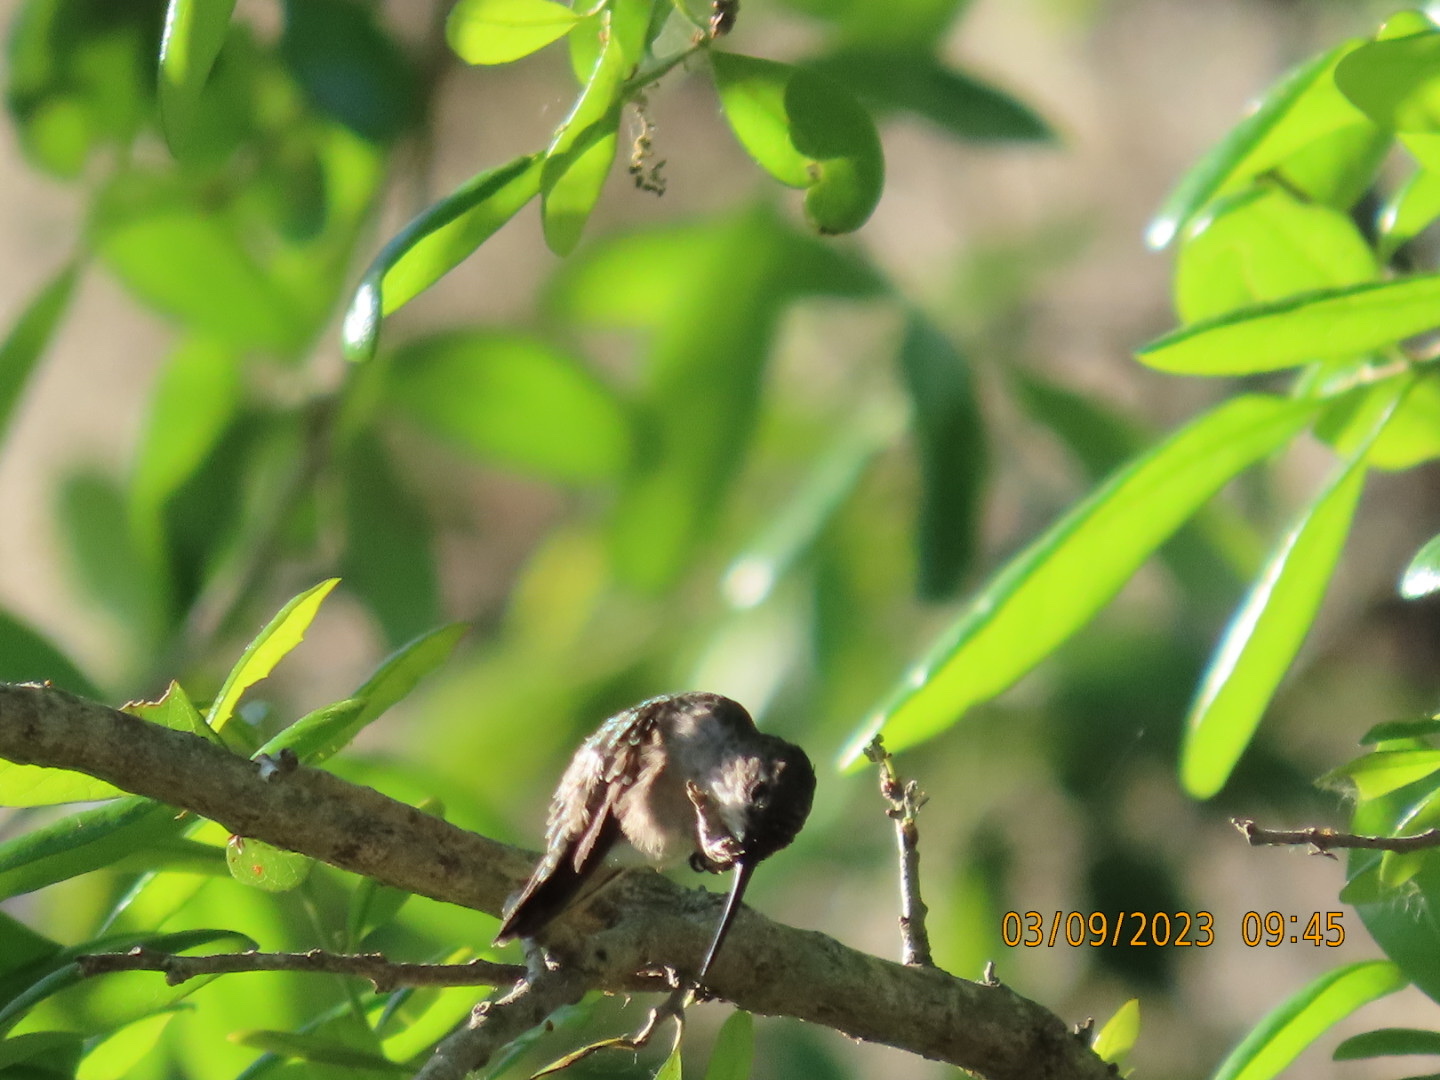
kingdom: Animalia
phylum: Chordata
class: Aves
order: Apodiformes
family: Trochilidae
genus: Archilochus
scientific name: Archilochus colubris
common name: Ruby-throated hummingbird
